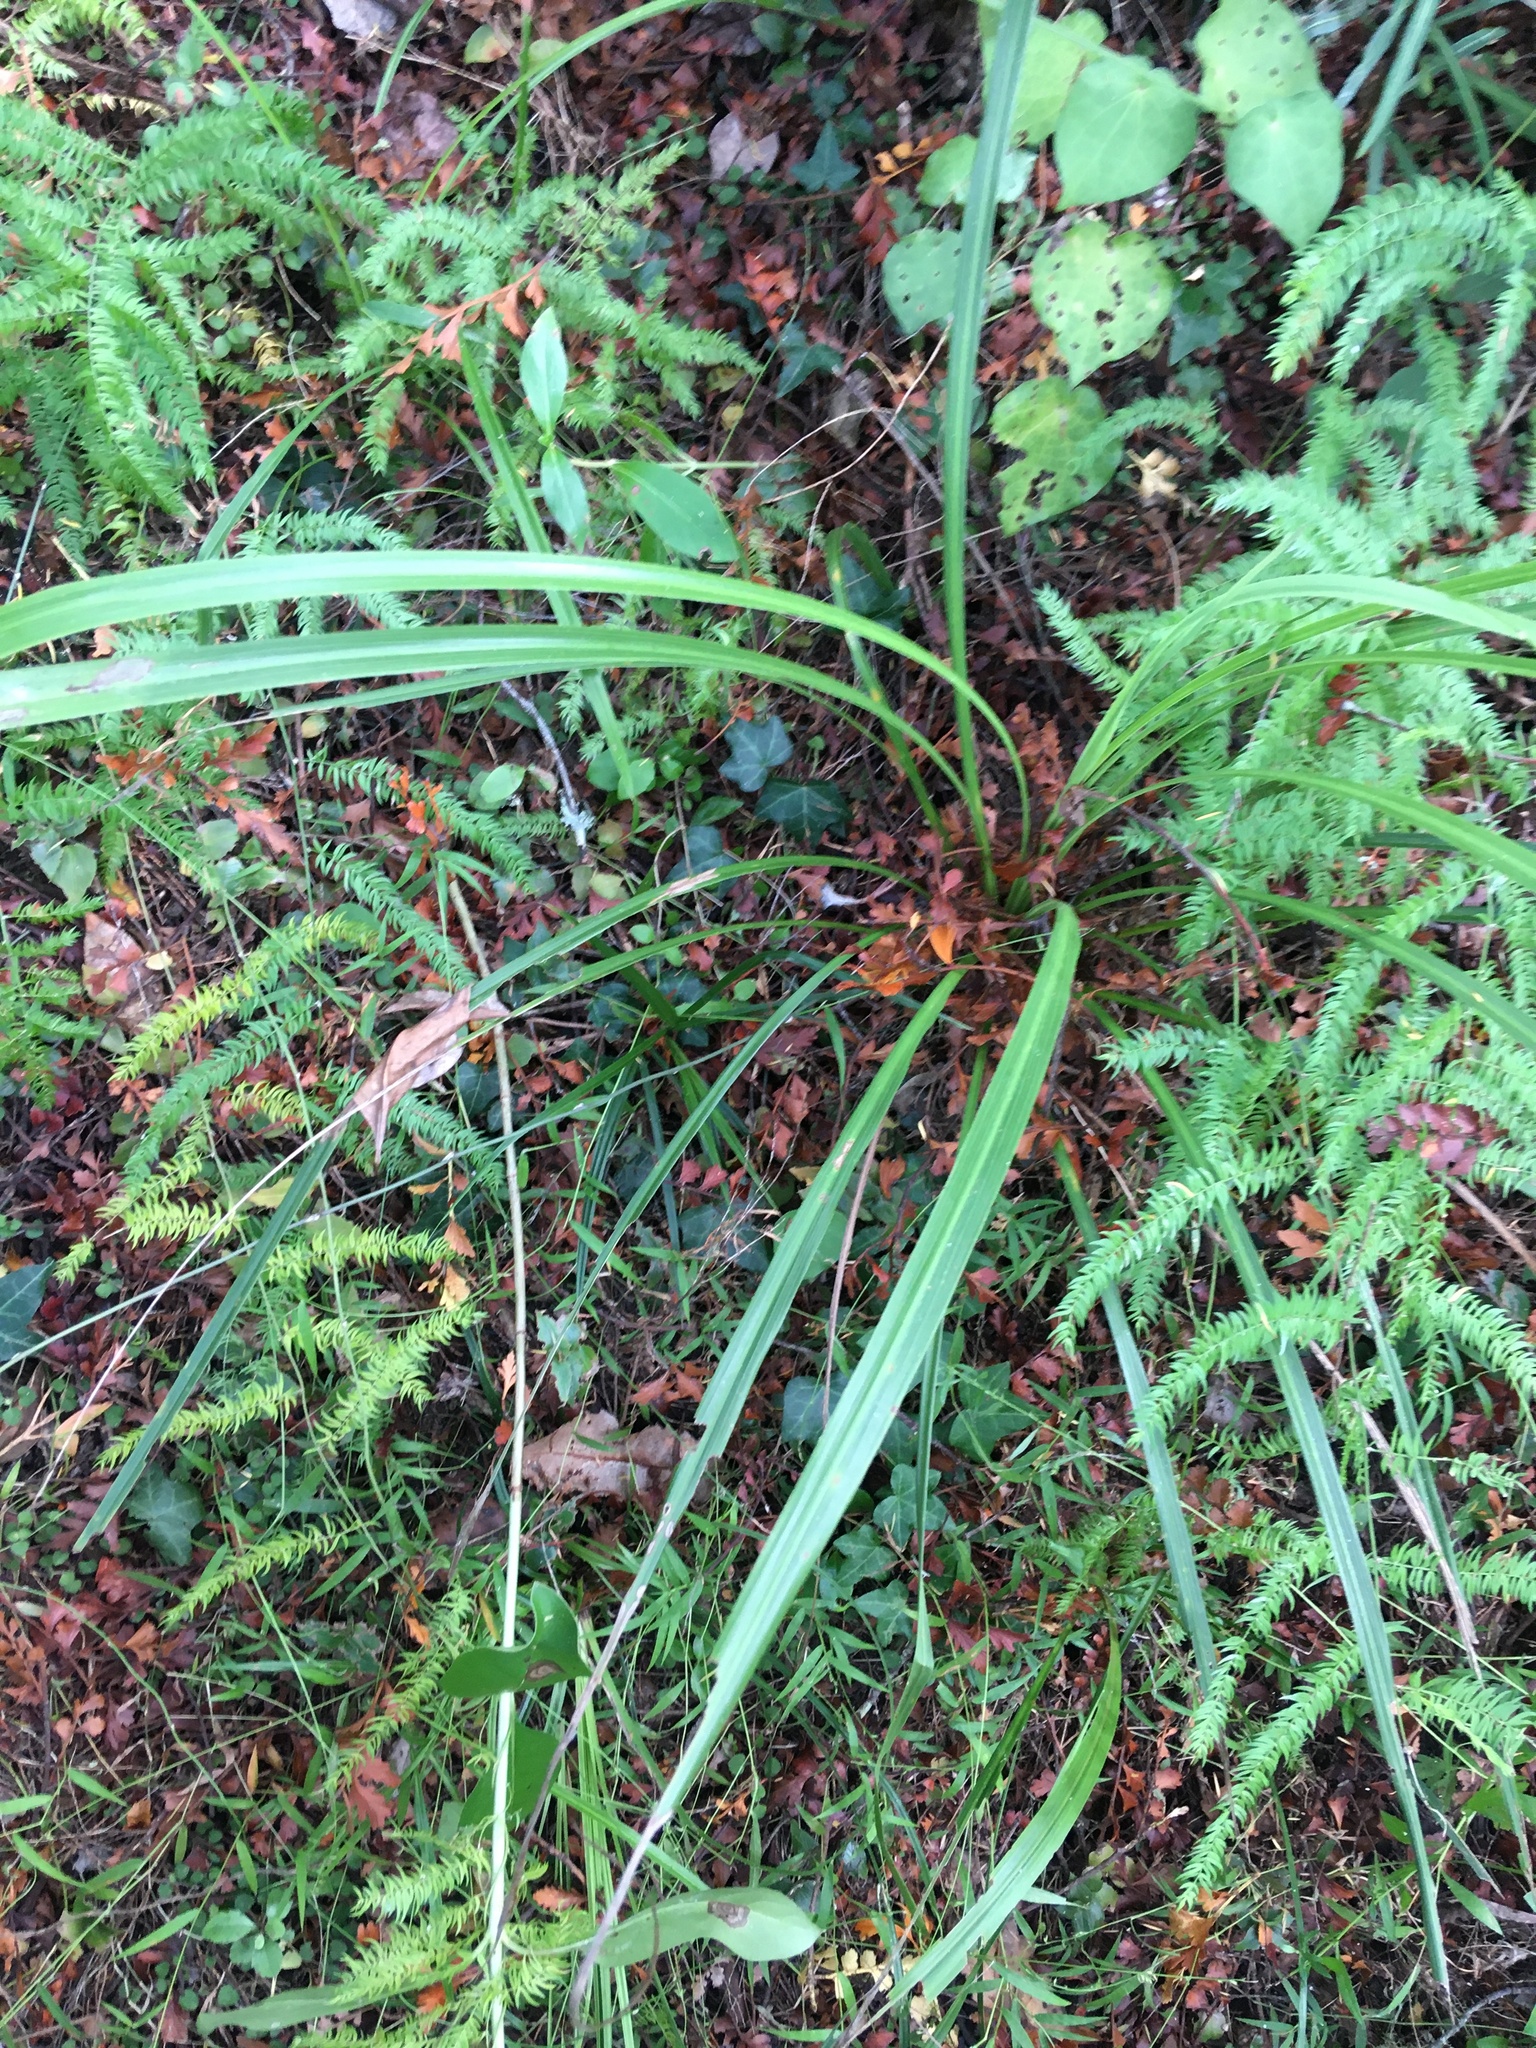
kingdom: Plantae
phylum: Tracheophyta
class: Liliopsida
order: Asparagales
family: Asparagaceae
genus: Cordyline
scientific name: Cordyline australis
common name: Cabbage-palm
